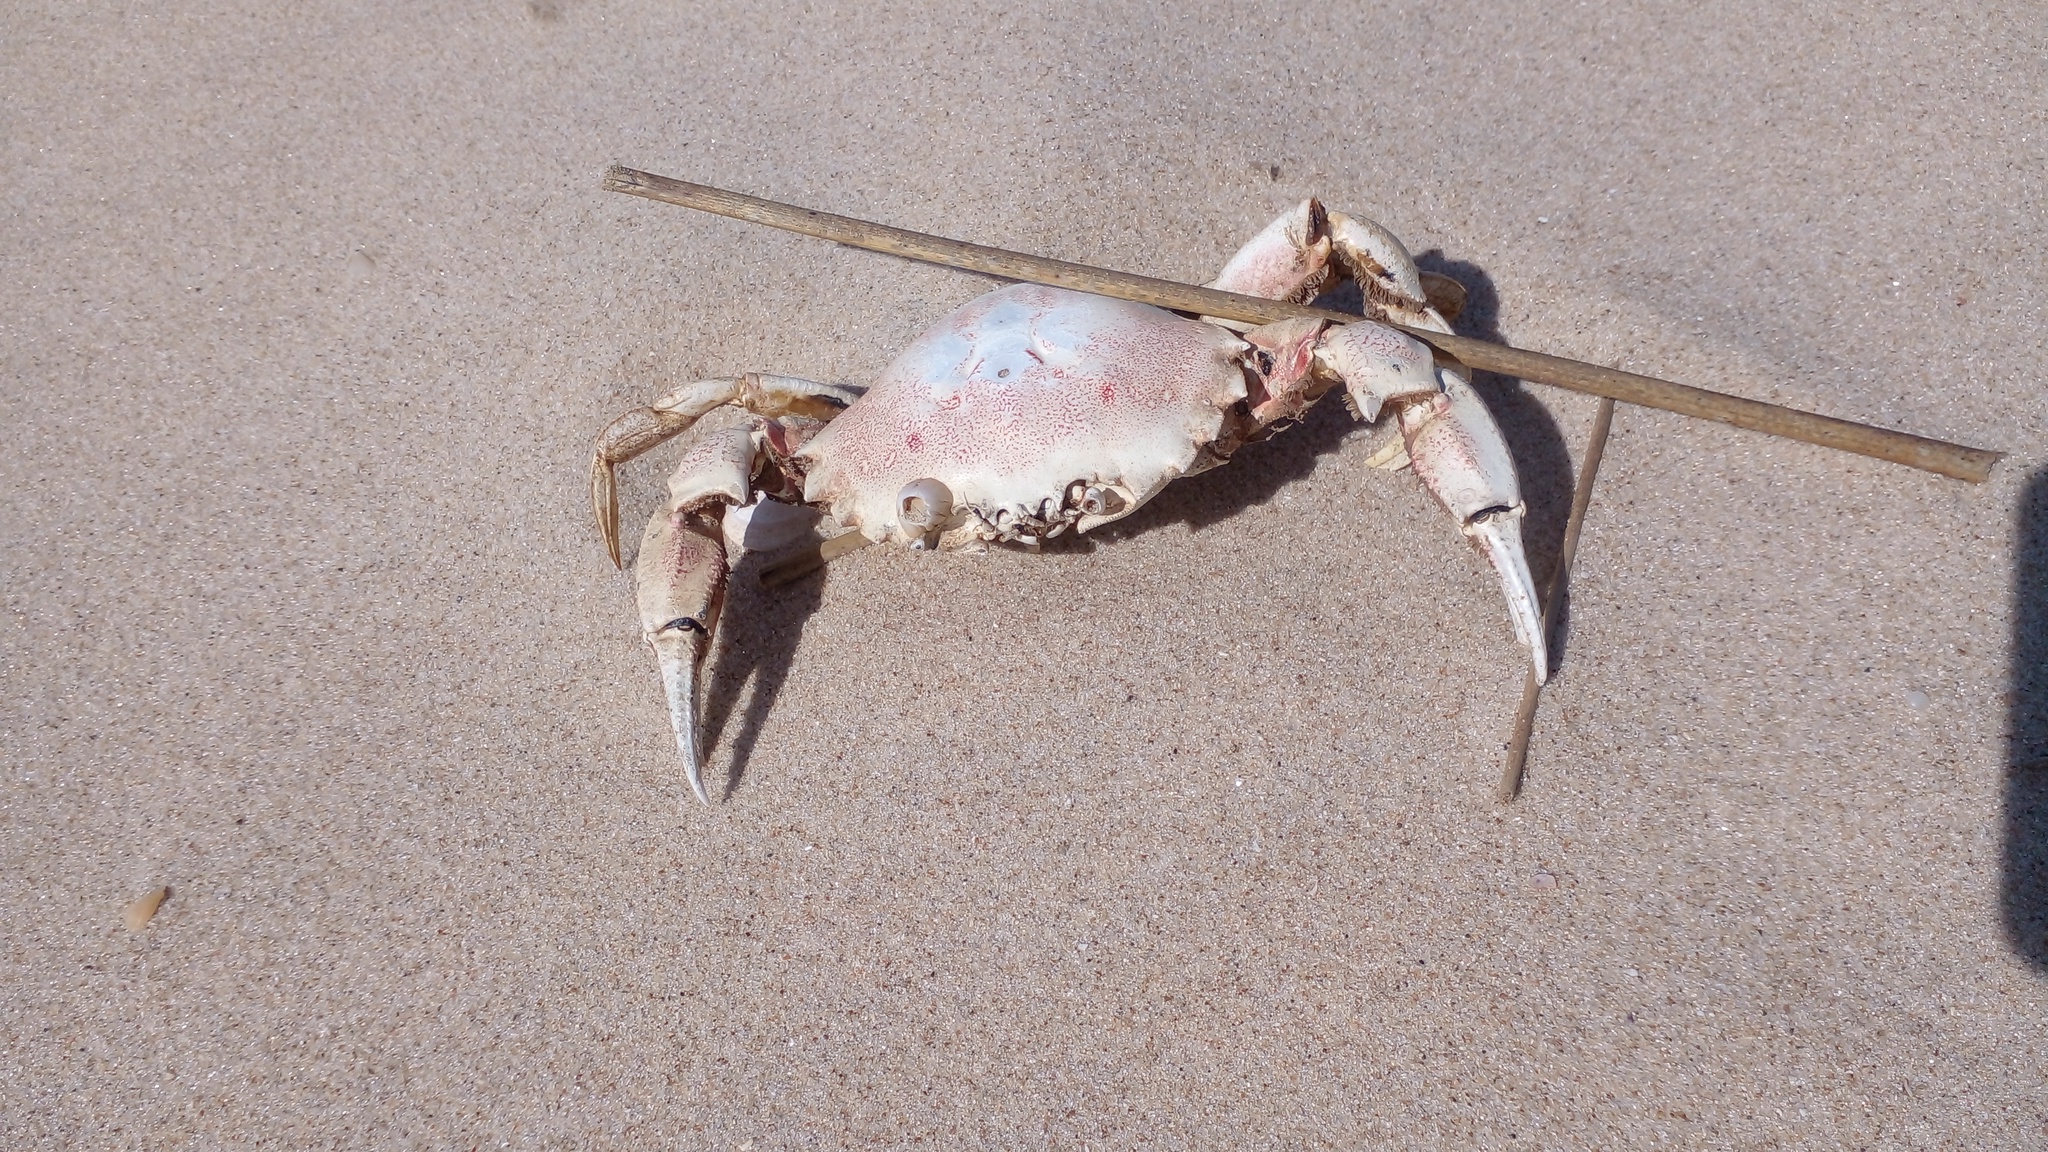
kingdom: Animalia
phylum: Arthropoda
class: Malacostraca
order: Decapoda
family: Ovalipidae
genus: Ovalipes
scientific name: Ovalipes trimaculatus
